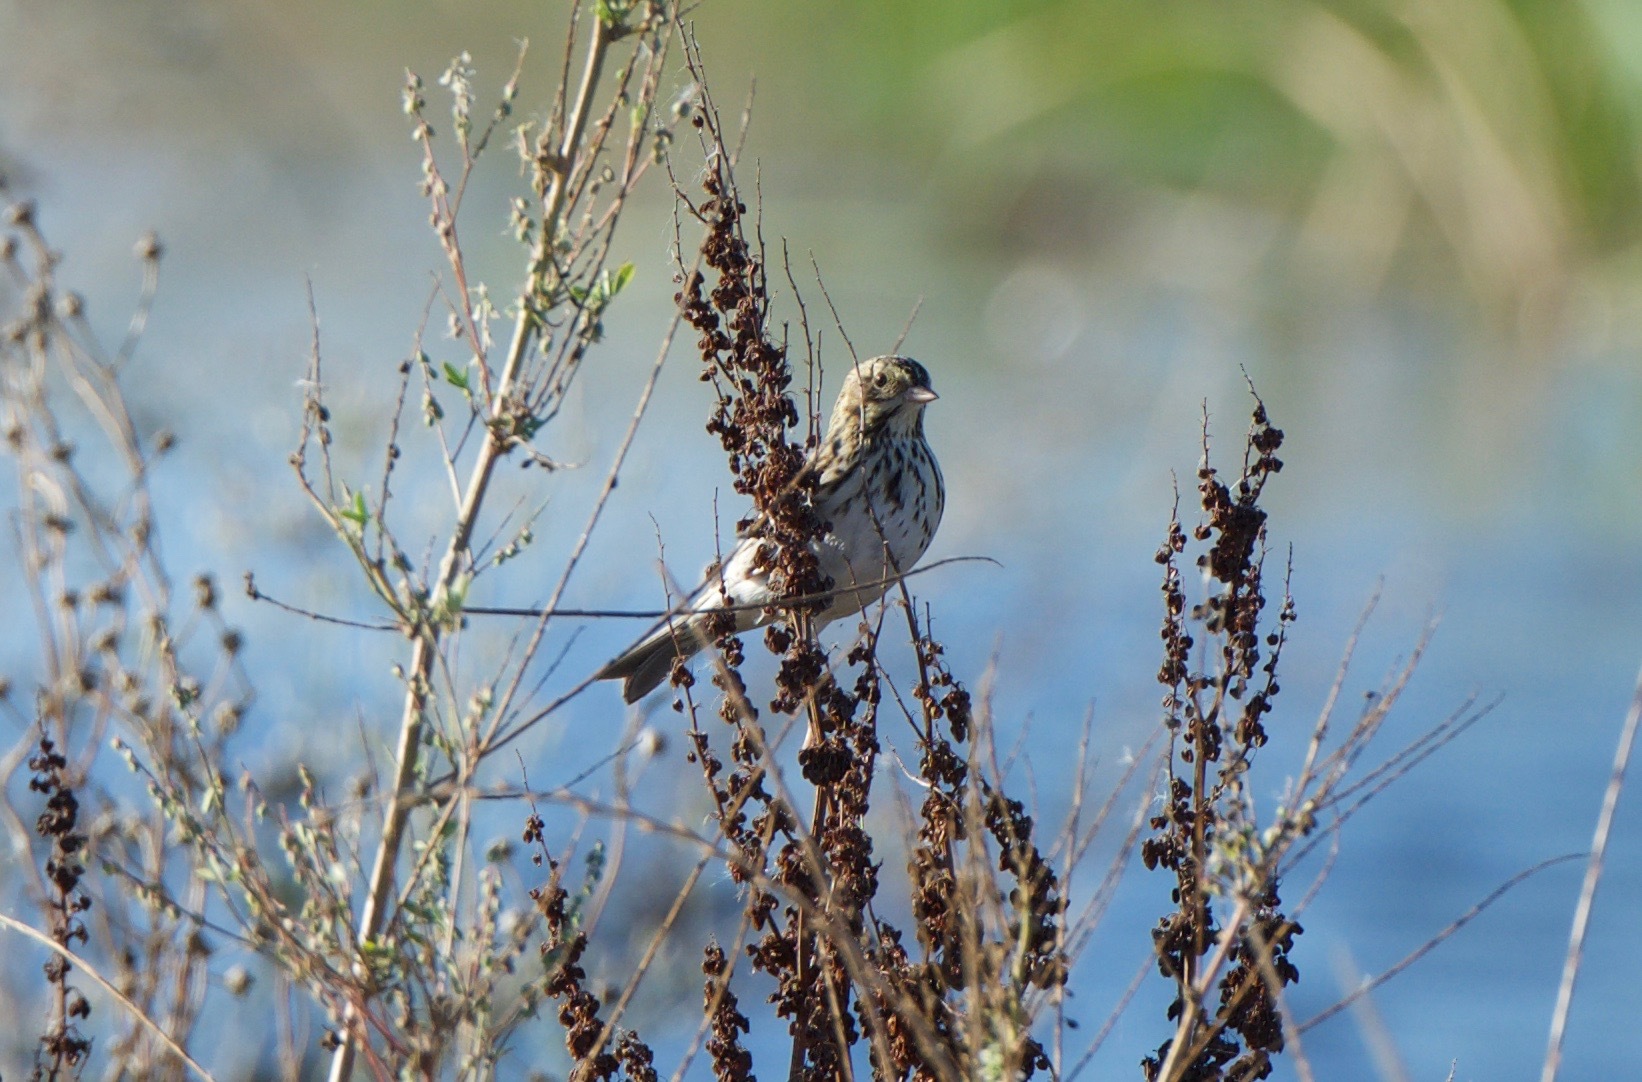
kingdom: Animalia
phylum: Chordata
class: Aves
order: Passeriformes
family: Passerellidae
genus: Passerculus
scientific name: Passerculus sandwichensis
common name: Savannah sparrow
